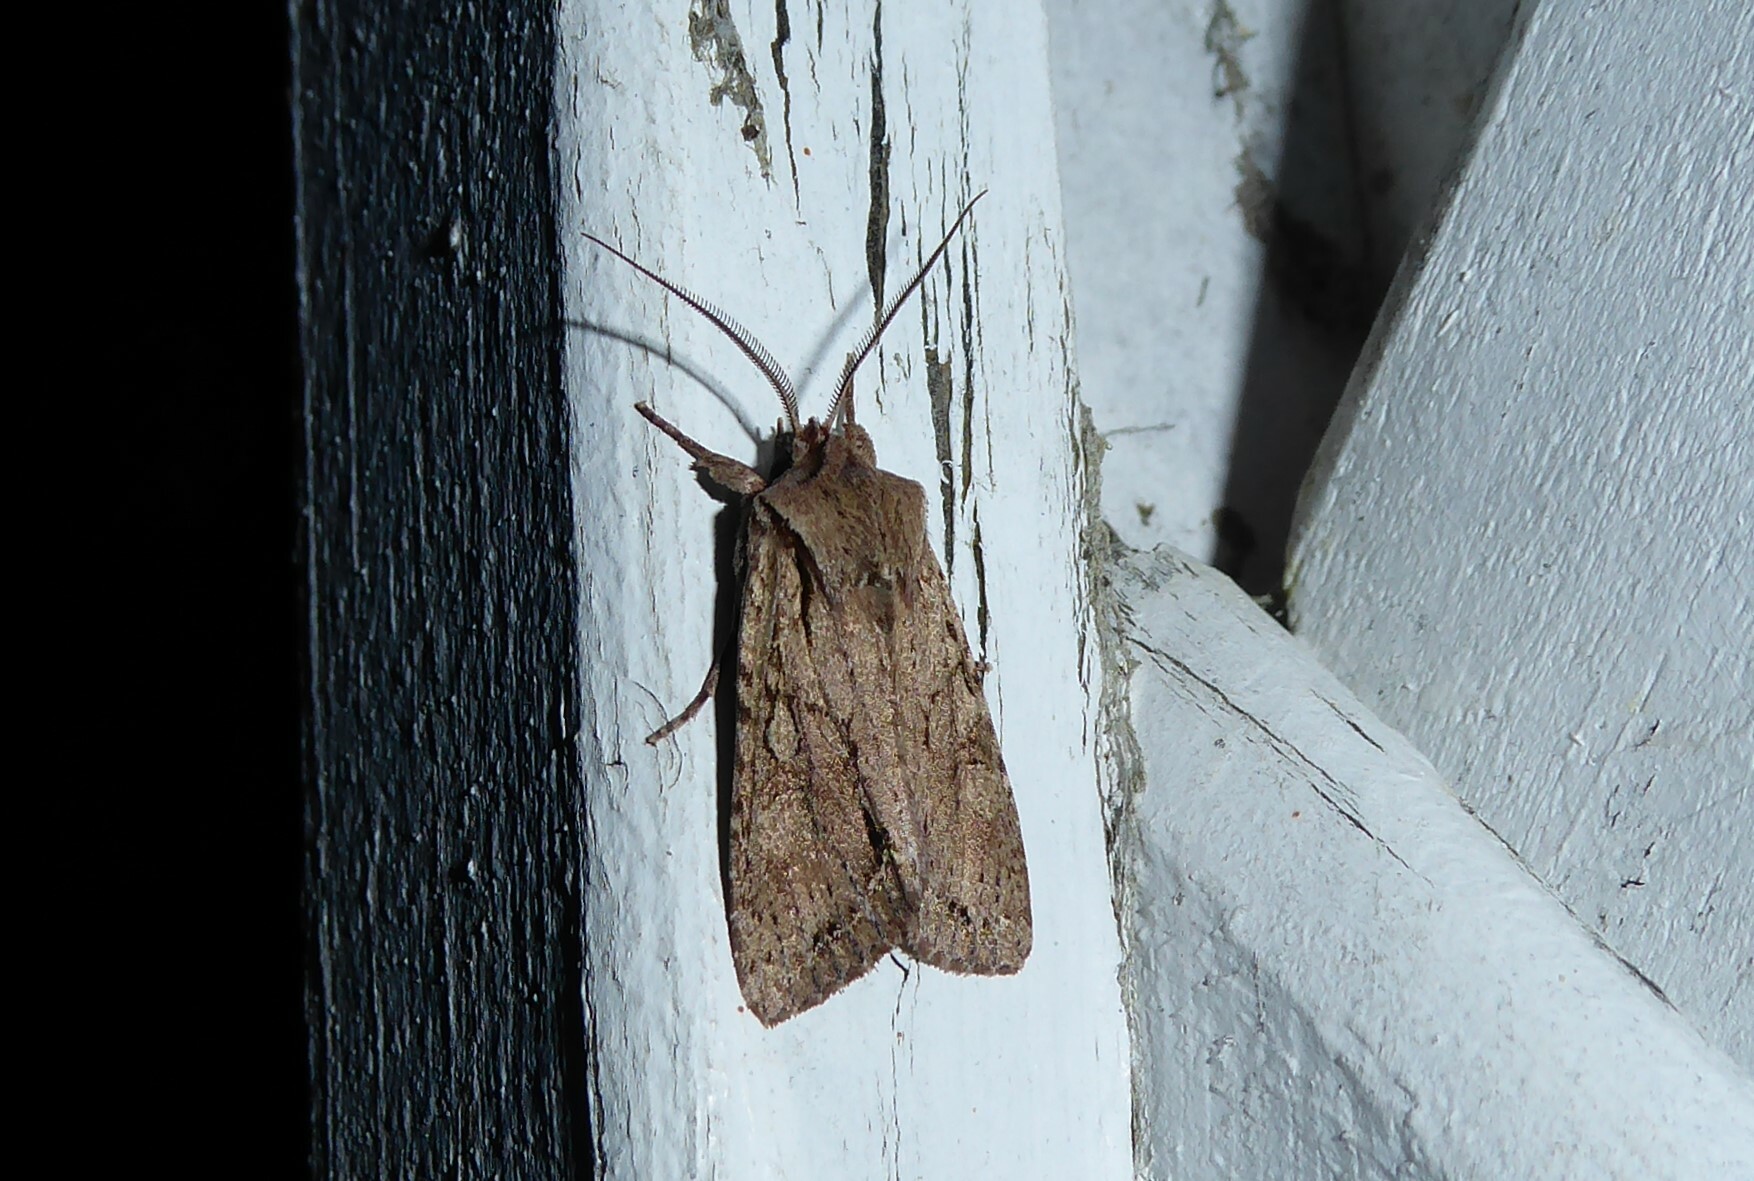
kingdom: Animalia
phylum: Arthropoda
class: Insecta
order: Lepidoptera
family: Noctuidae
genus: Ichneutica
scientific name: Ichneutica
